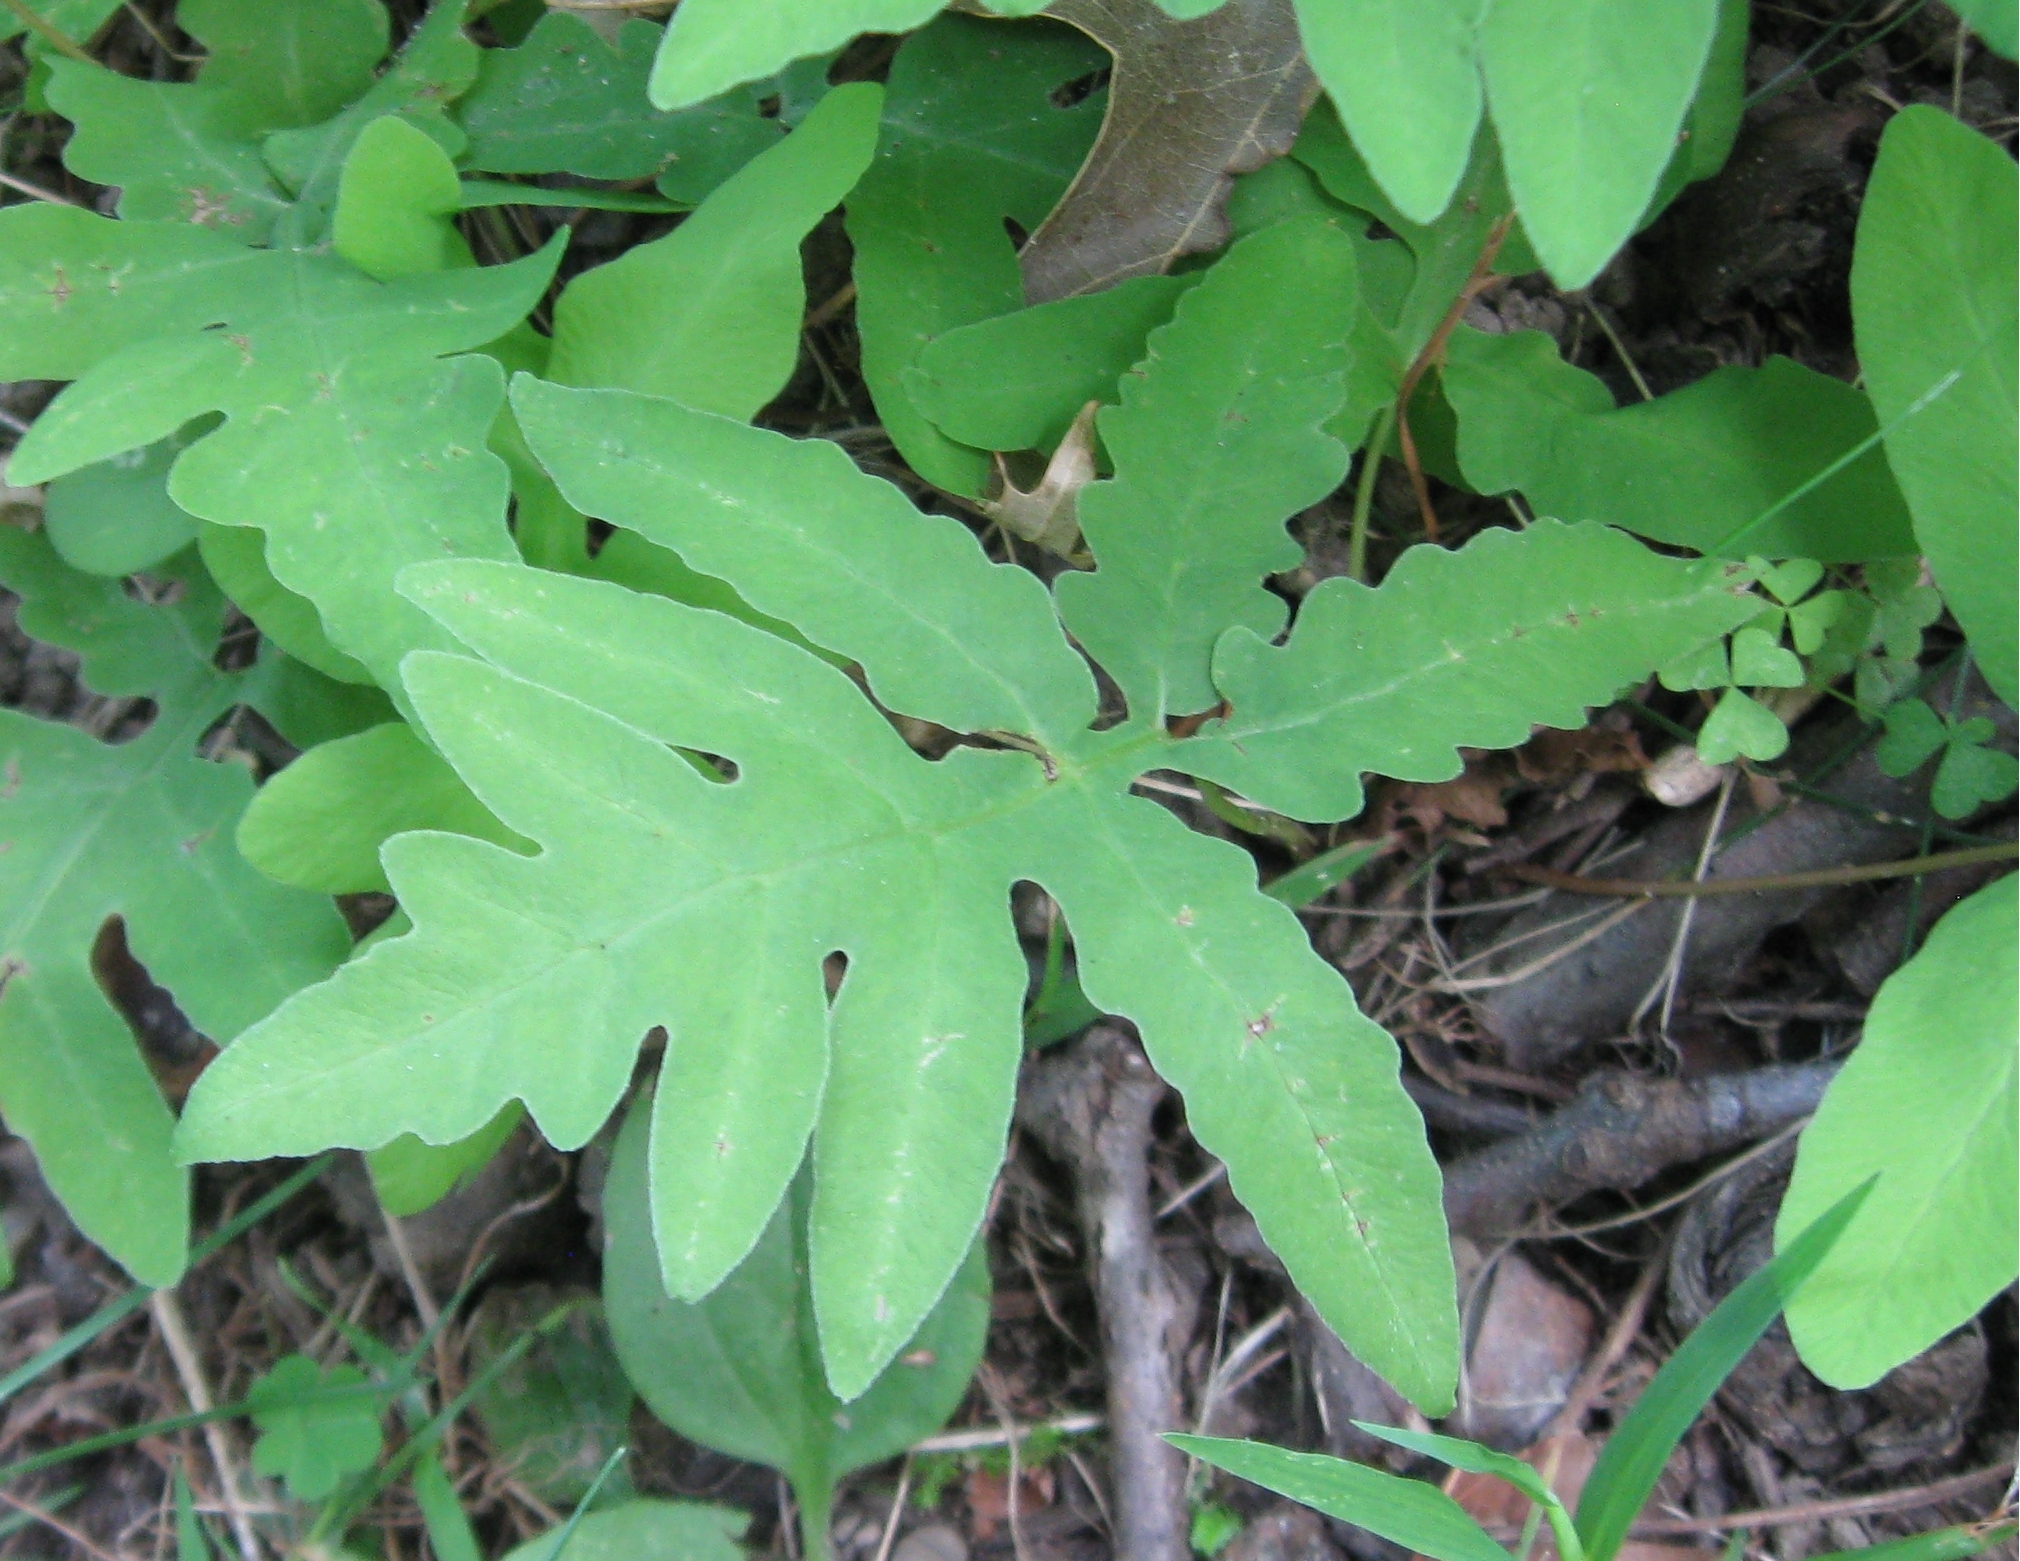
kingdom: Plantae
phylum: Tracheophyta
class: Polypodiopsida
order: Polypodiales
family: Onocleaceae
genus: Onoclea
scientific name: Onoclea sensibilis
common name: Sensitive fern
